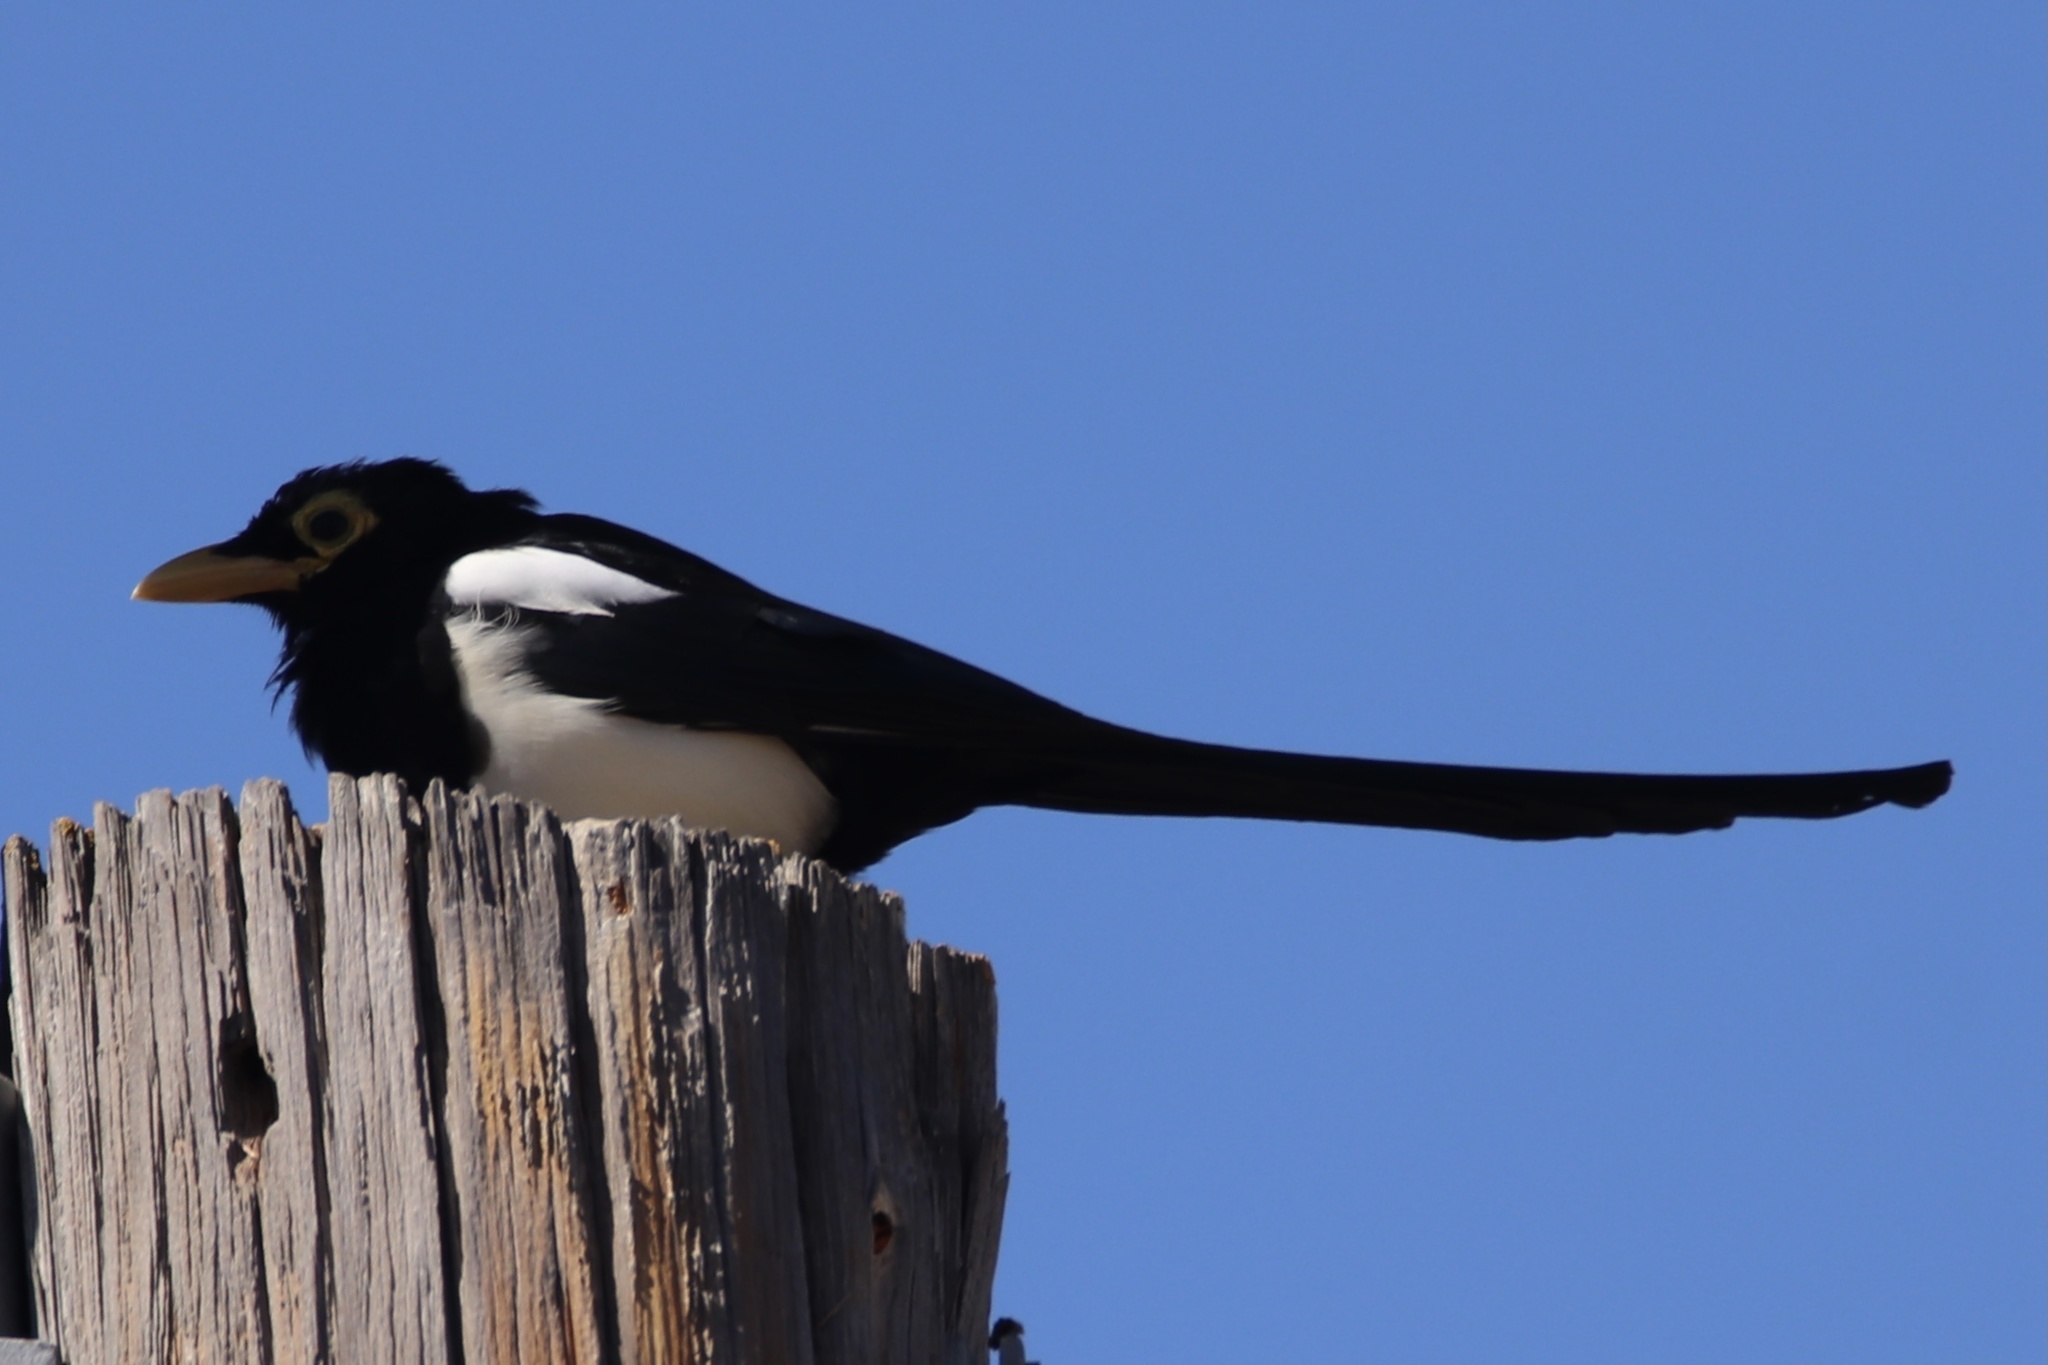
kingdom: Animalia
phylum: Chordata
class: Aves
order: Passeriformes
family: Corvidae
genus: Pica
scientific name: Pica nuttalli
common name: Yellow-billed magpie
